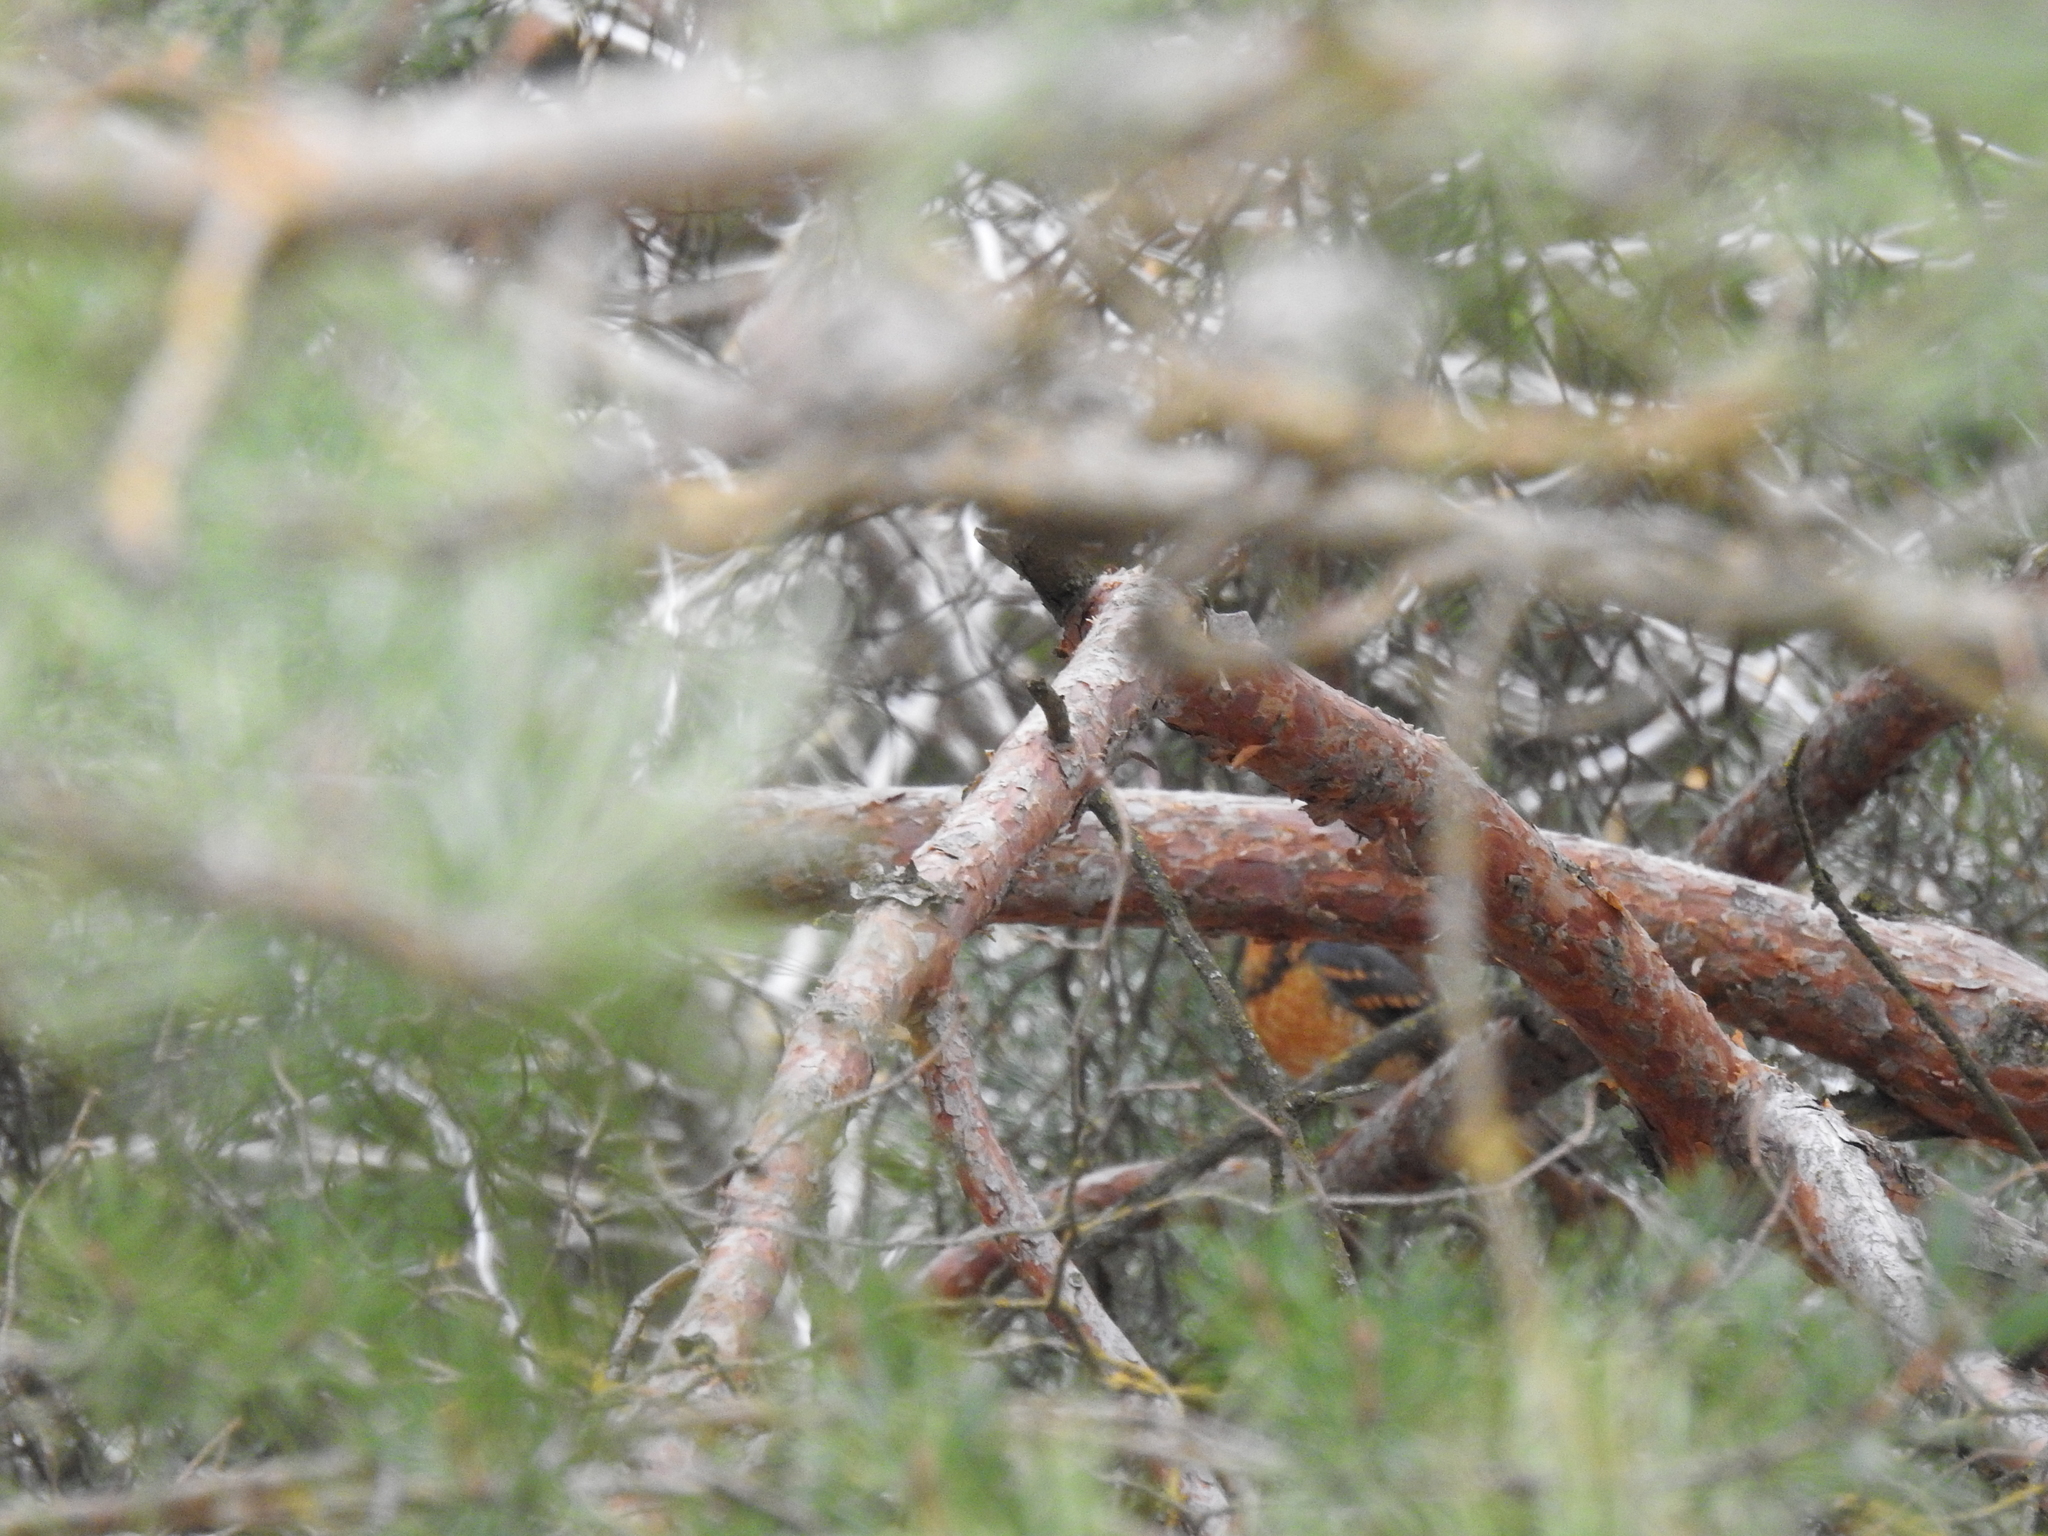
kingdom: Animalia
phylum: Chordata
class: Aves
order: Passeriformes
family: Turdidae
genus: Ixoreus
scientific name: Ixoreus naevius
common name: Varied thrush
